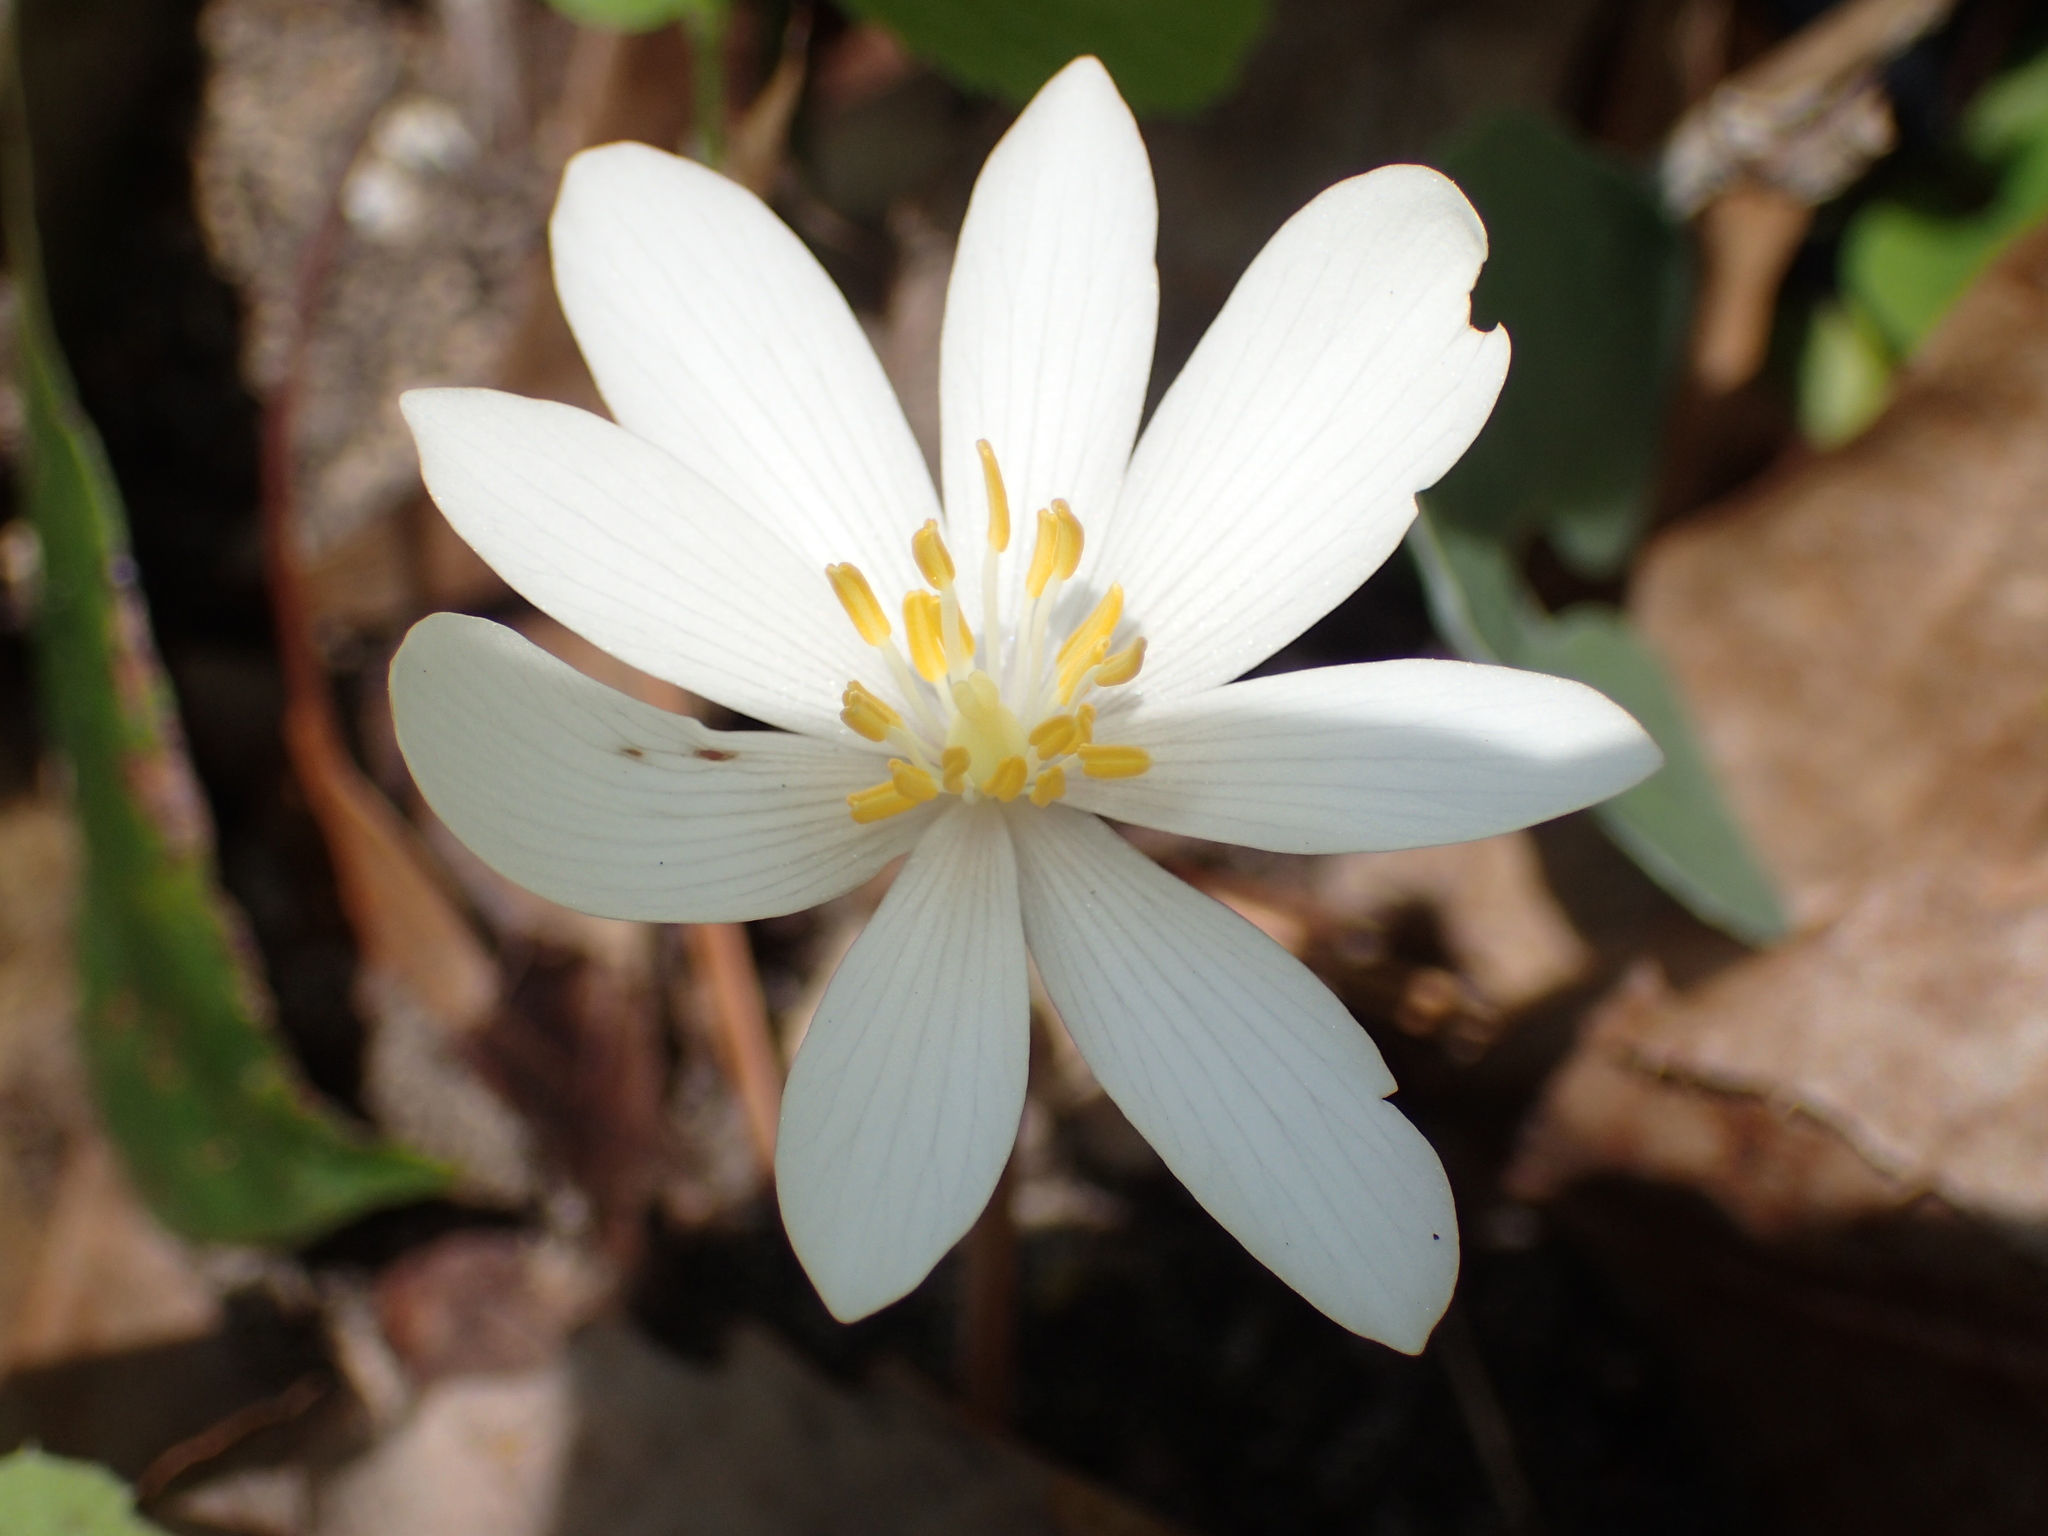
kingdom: Plantae
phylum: Tracheophyta
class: Magnoliopsida
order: Ranunculales
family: Papaveraceae
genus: Sanguinaria
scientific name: Sanguinaria canadensis
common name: Bloodroot
